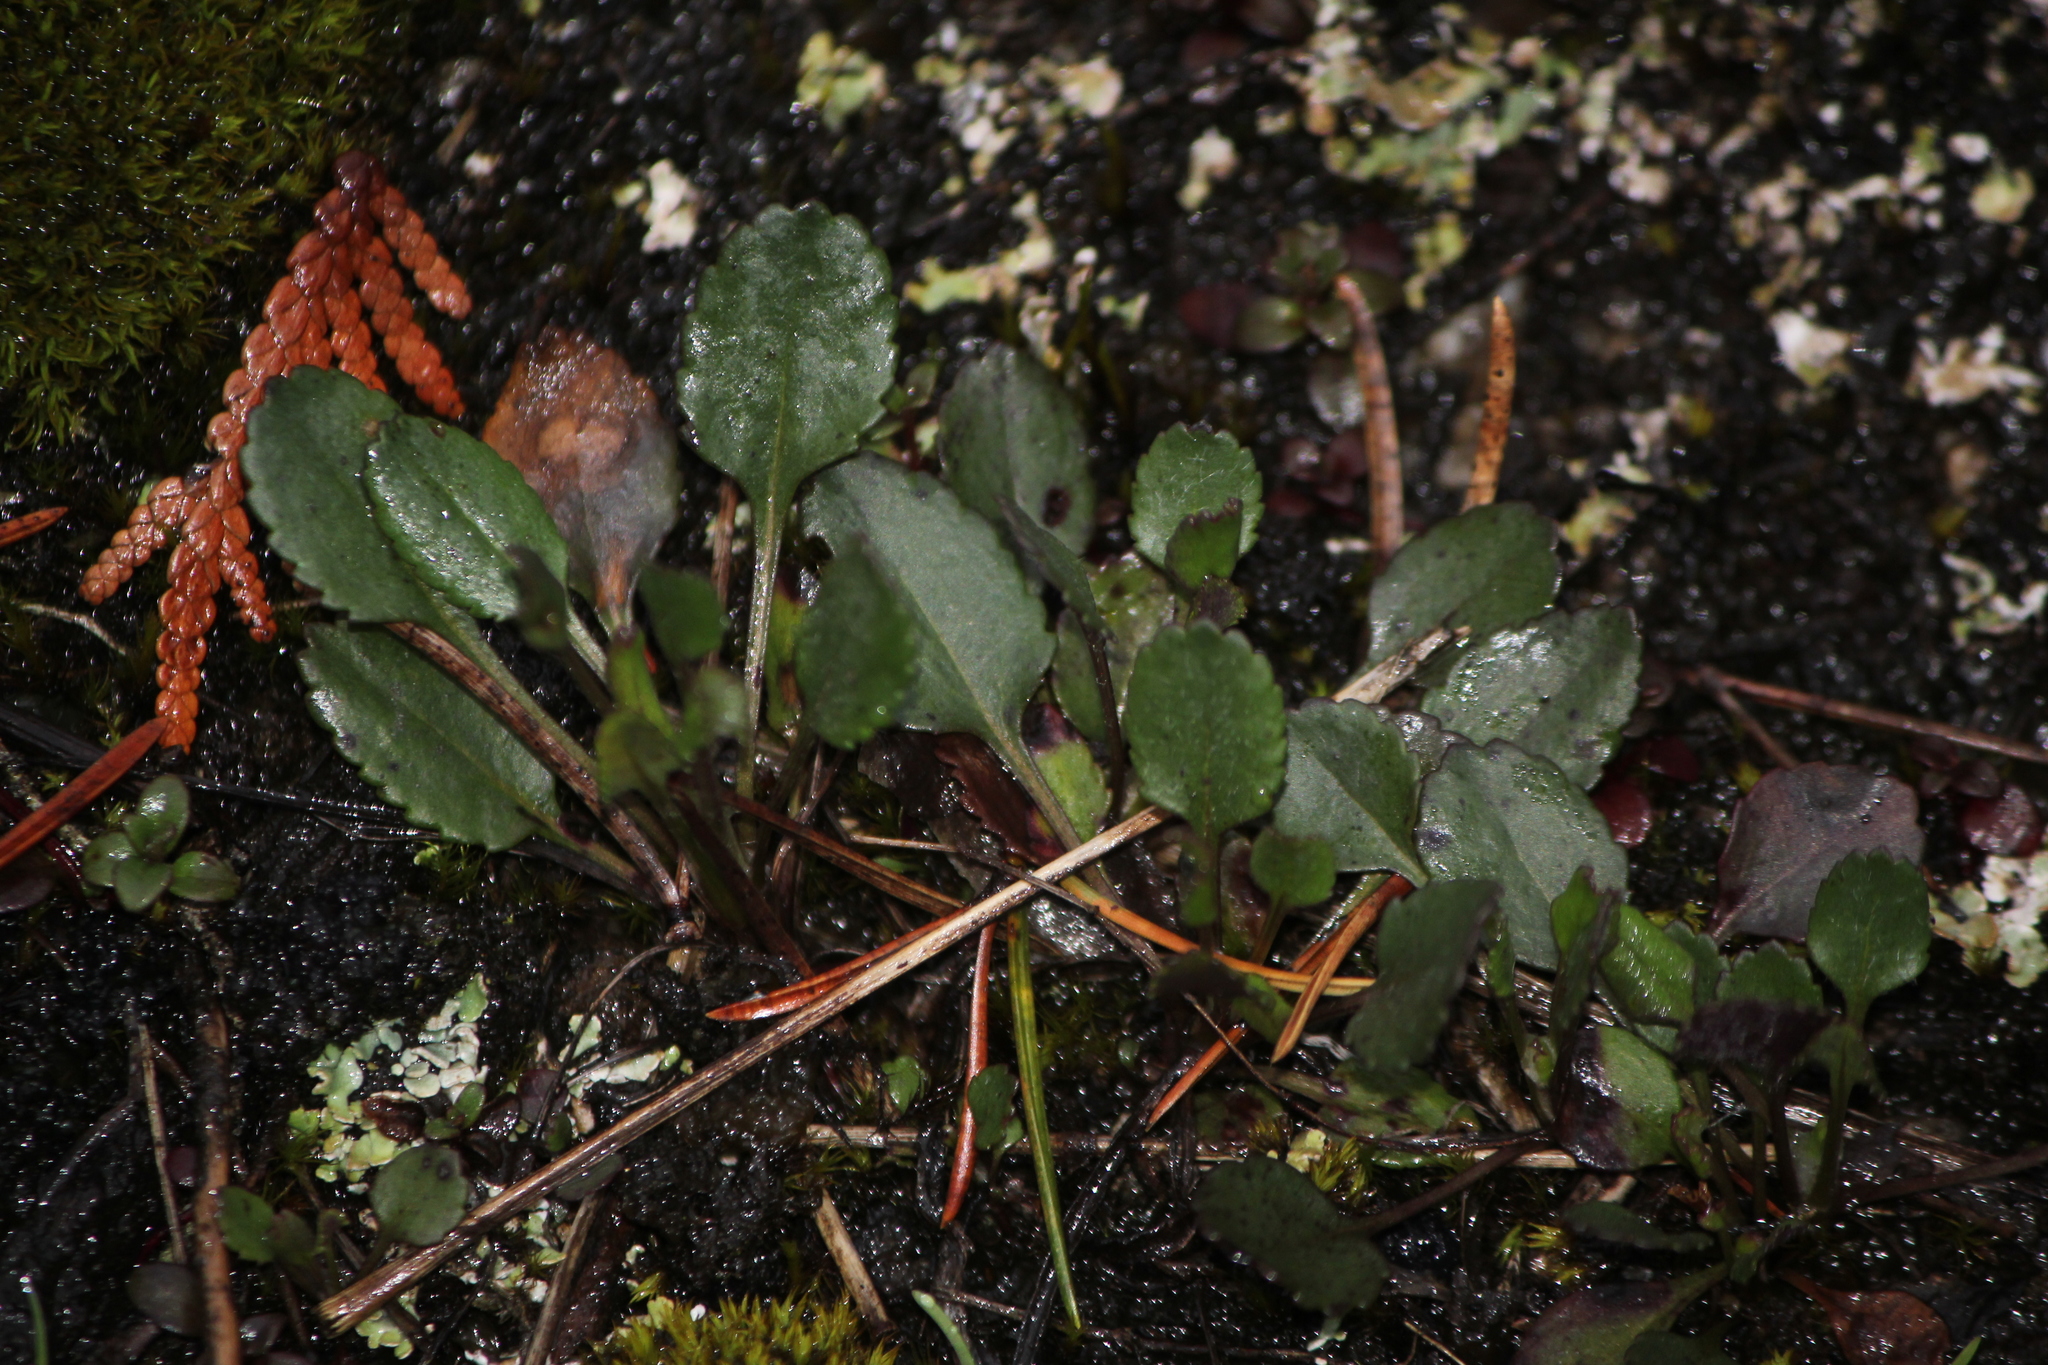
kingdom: Plantae
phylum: Tracheophyta
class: Magnoliopsida
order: Asterales
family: Asteraceae
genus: Packera
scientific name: Packera obovata
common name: Round-leaf ragwort
